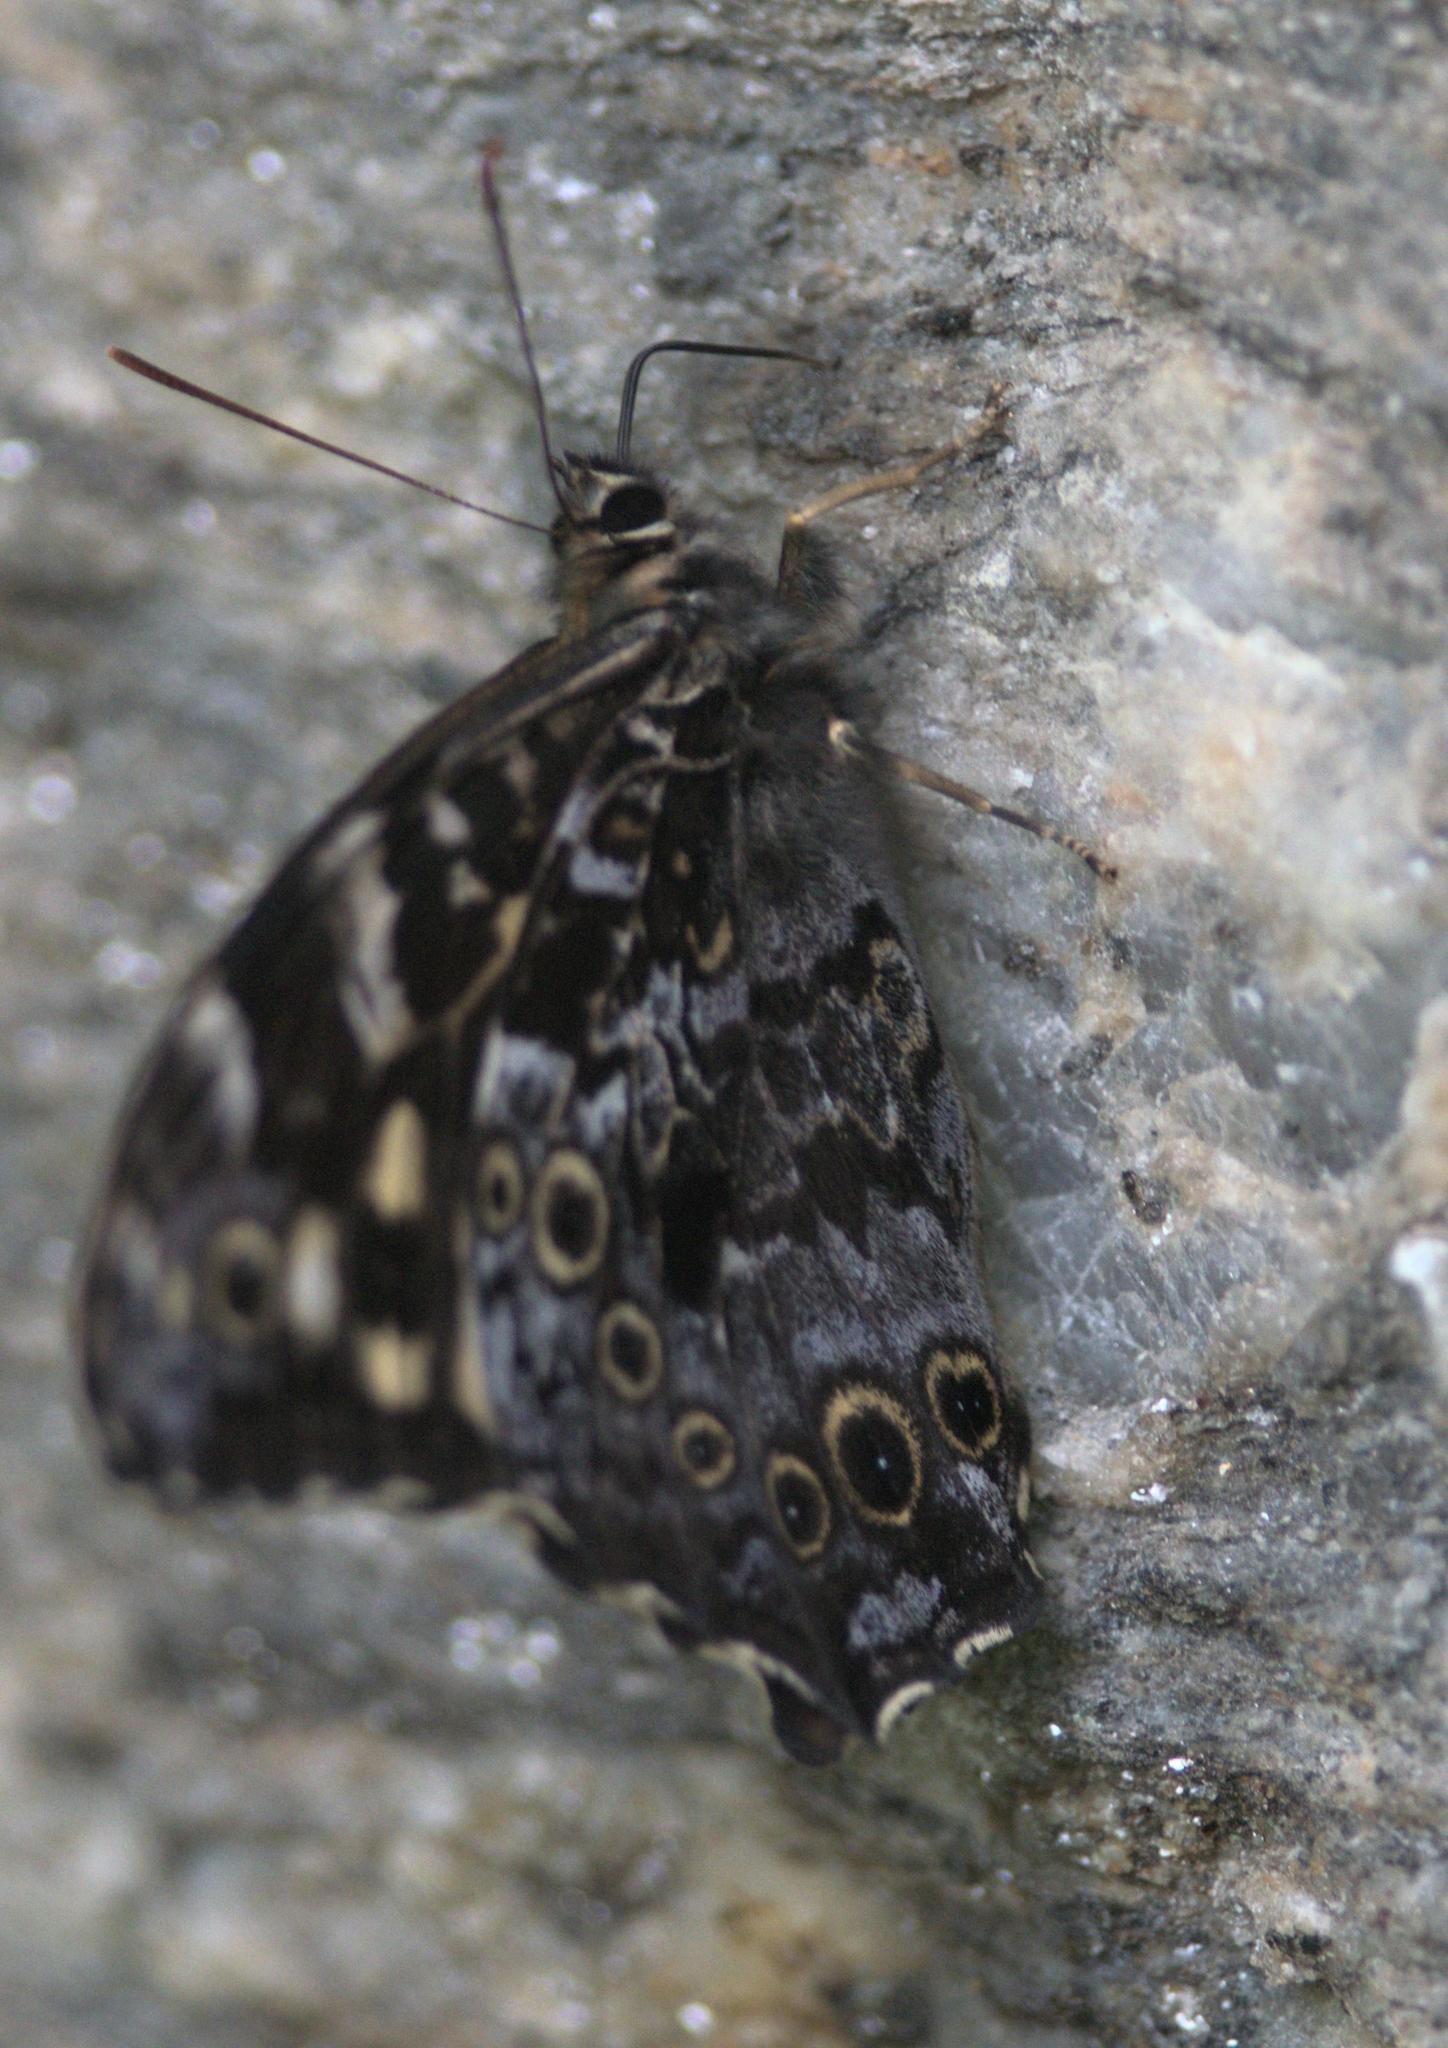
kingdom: Animalia
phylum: Arthropoda
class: Insecta
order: Lepidoptera
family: Nymphalidae
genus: Neope
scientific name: Neope pulaha
